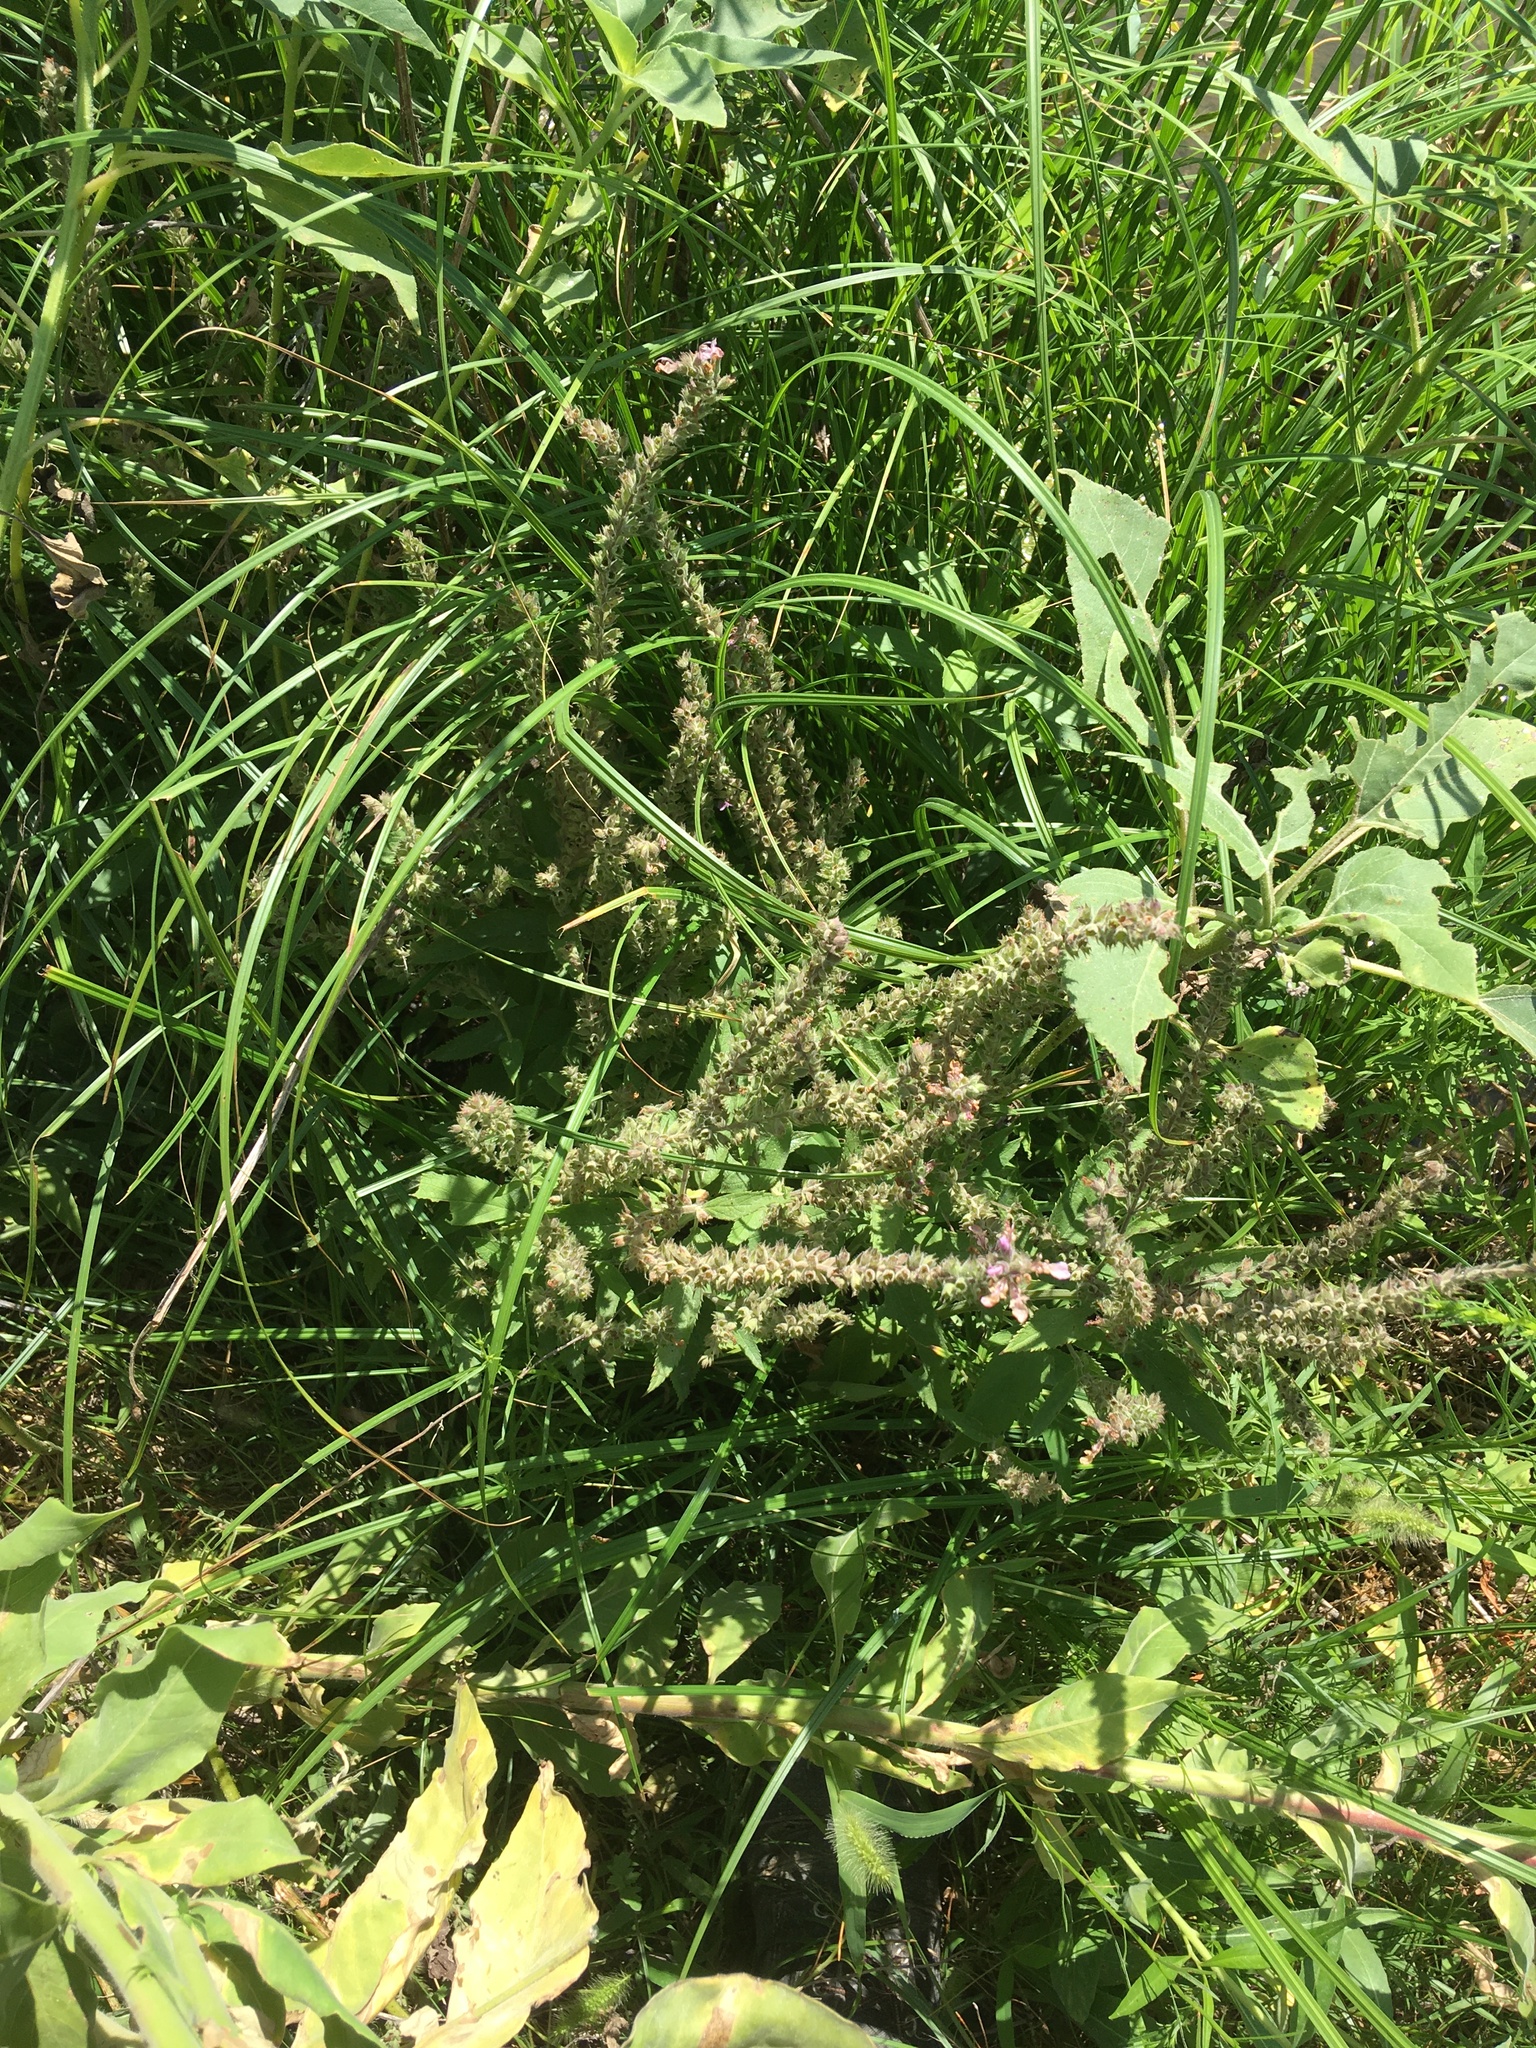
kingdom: Plantae
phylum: Tracheophyta
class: Magnoliopsida
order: Lamiales
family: Lamiaceae
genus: Teucrium
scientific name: Teucrium canadense
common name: American germander
